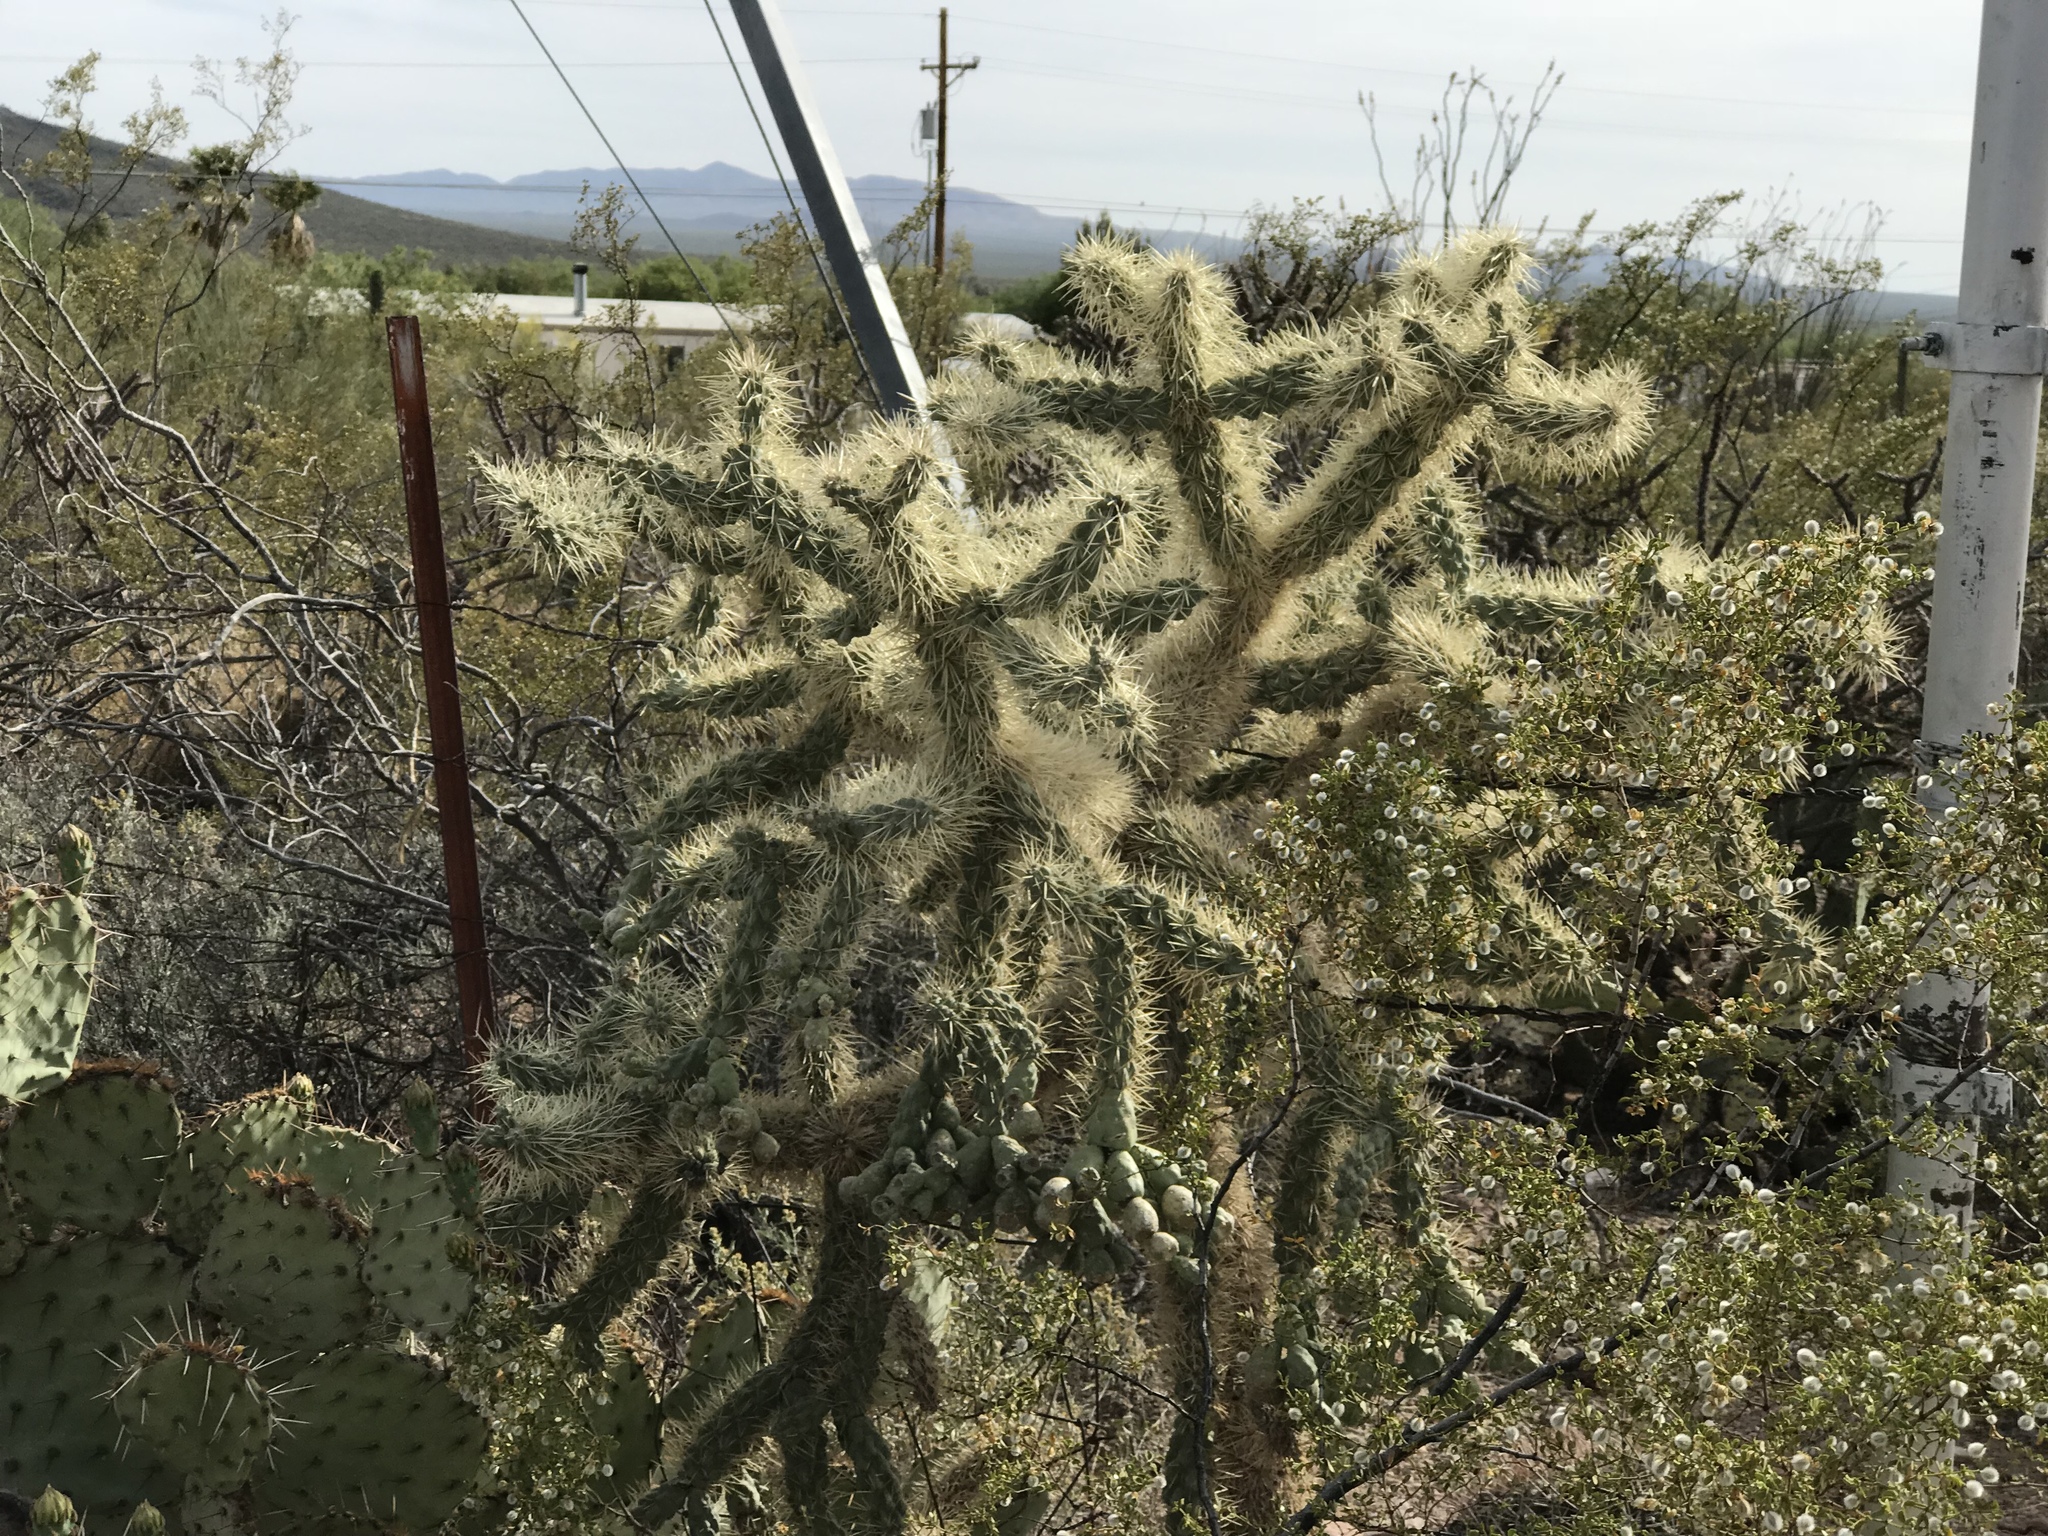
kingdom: Plantae
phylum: Tracheophyta
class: Magnoliopsida
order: Caryophyllales
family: Cactaceae
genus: Cylindropuntia
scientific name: Cylindropuntia fulgida
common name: Jumping cholla
